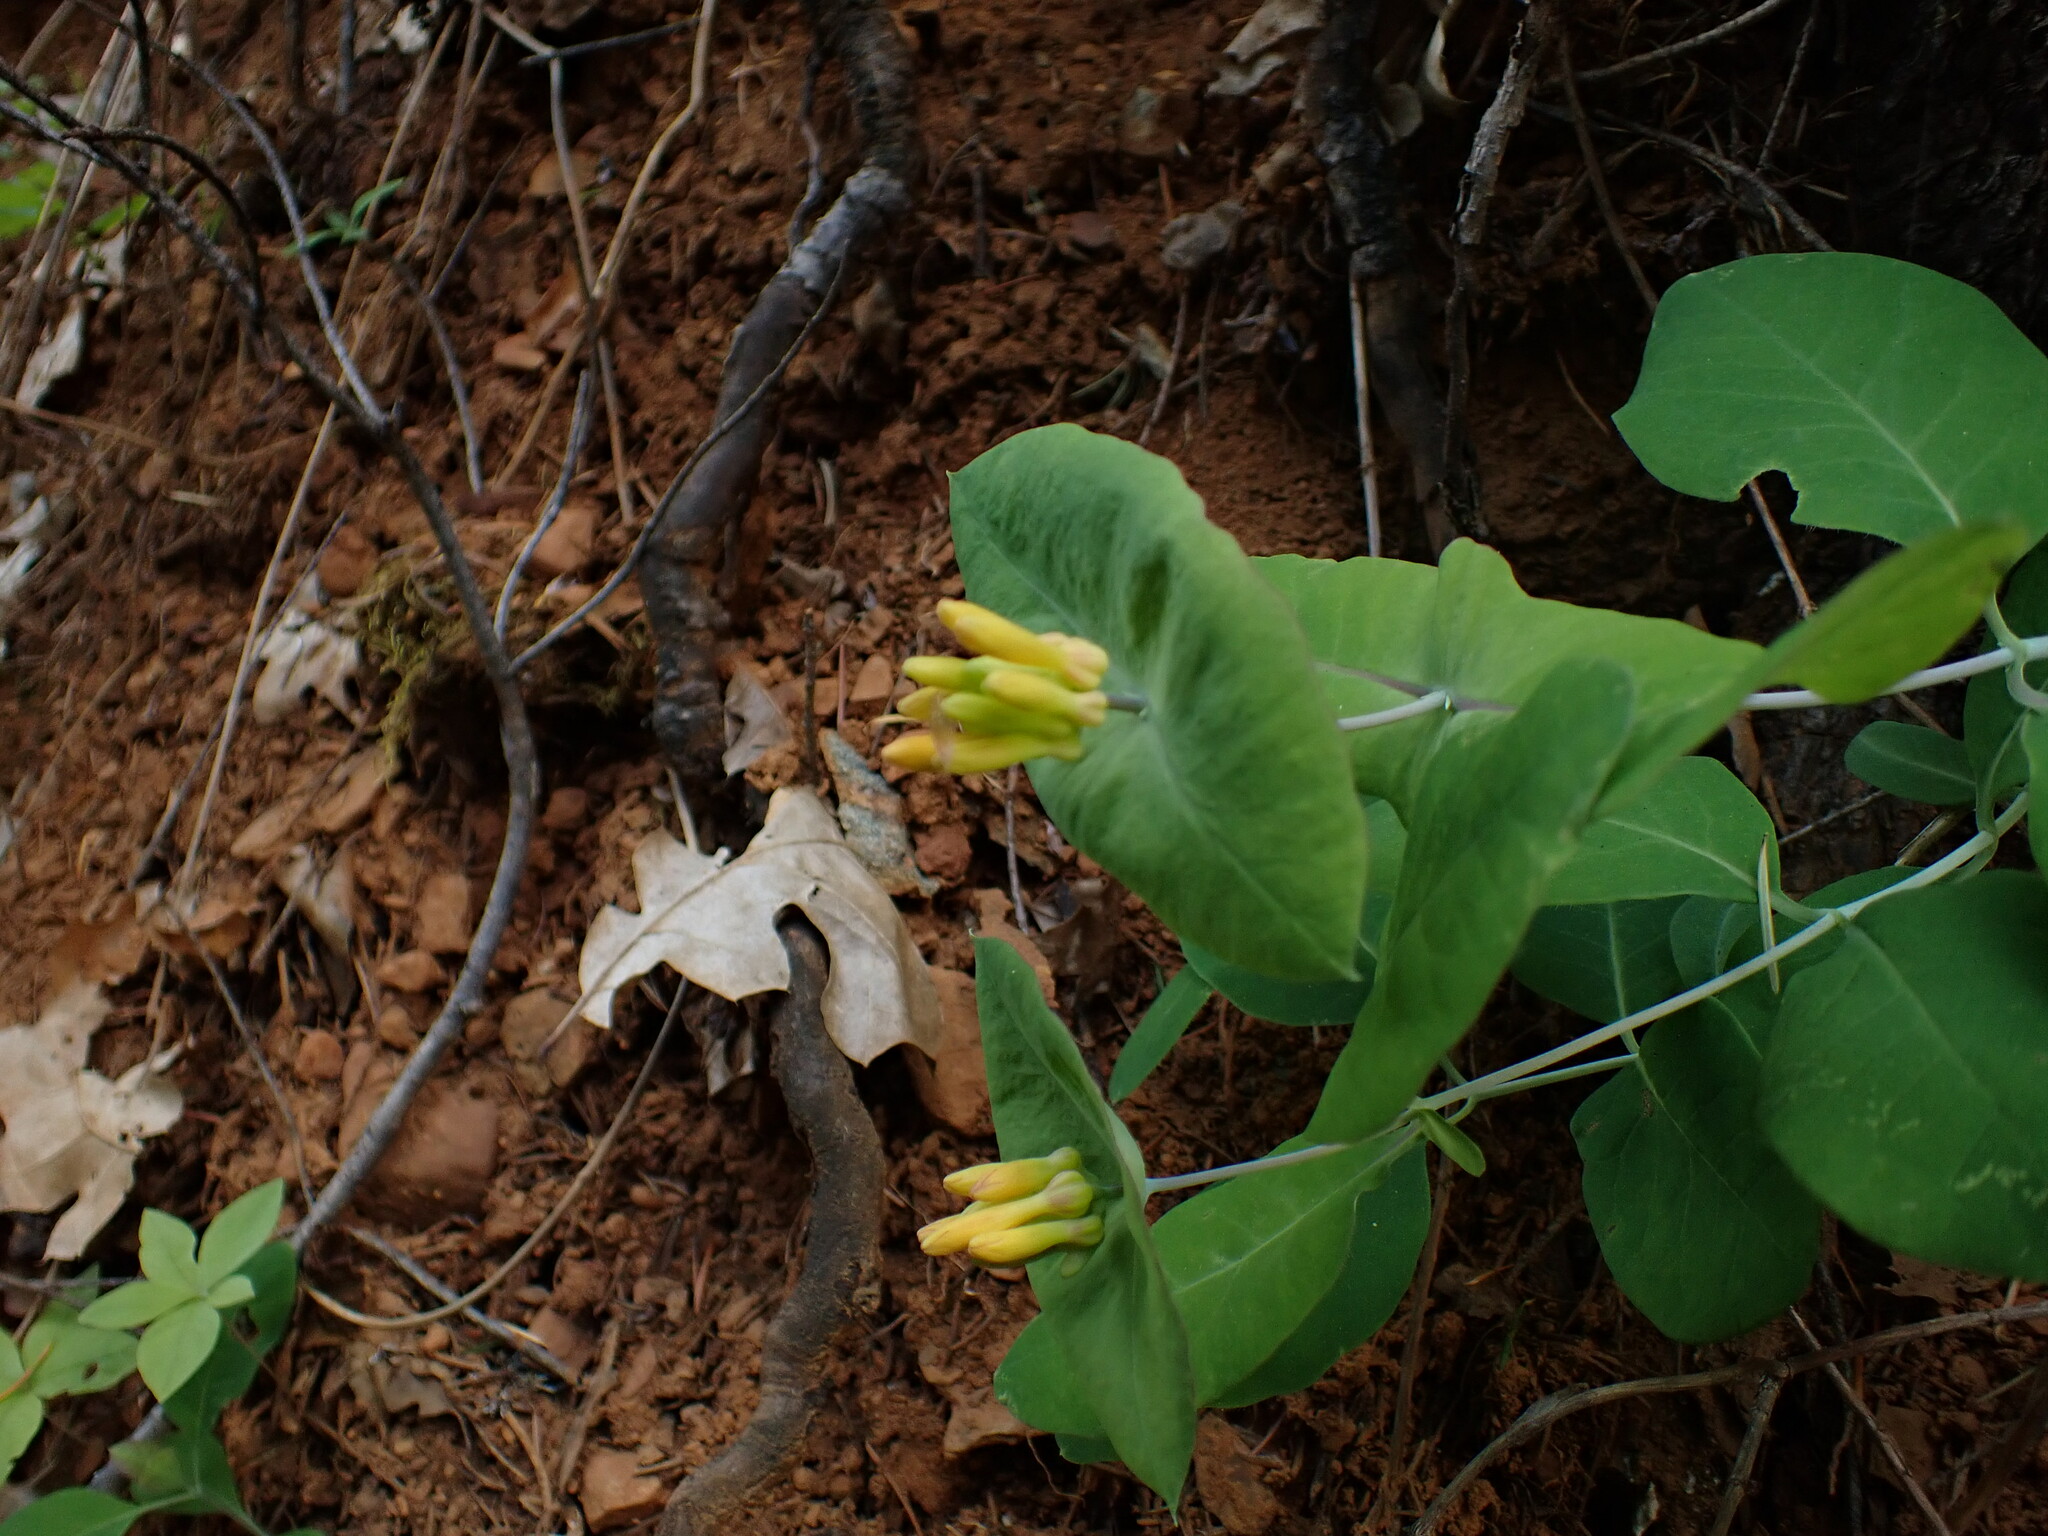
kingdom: Plantae
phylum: Tracheophyta
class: Magnoliopsida
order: Dipsacales
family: Caprifoliaceae
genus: Lonicera
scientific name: Lonicera ciliosa
